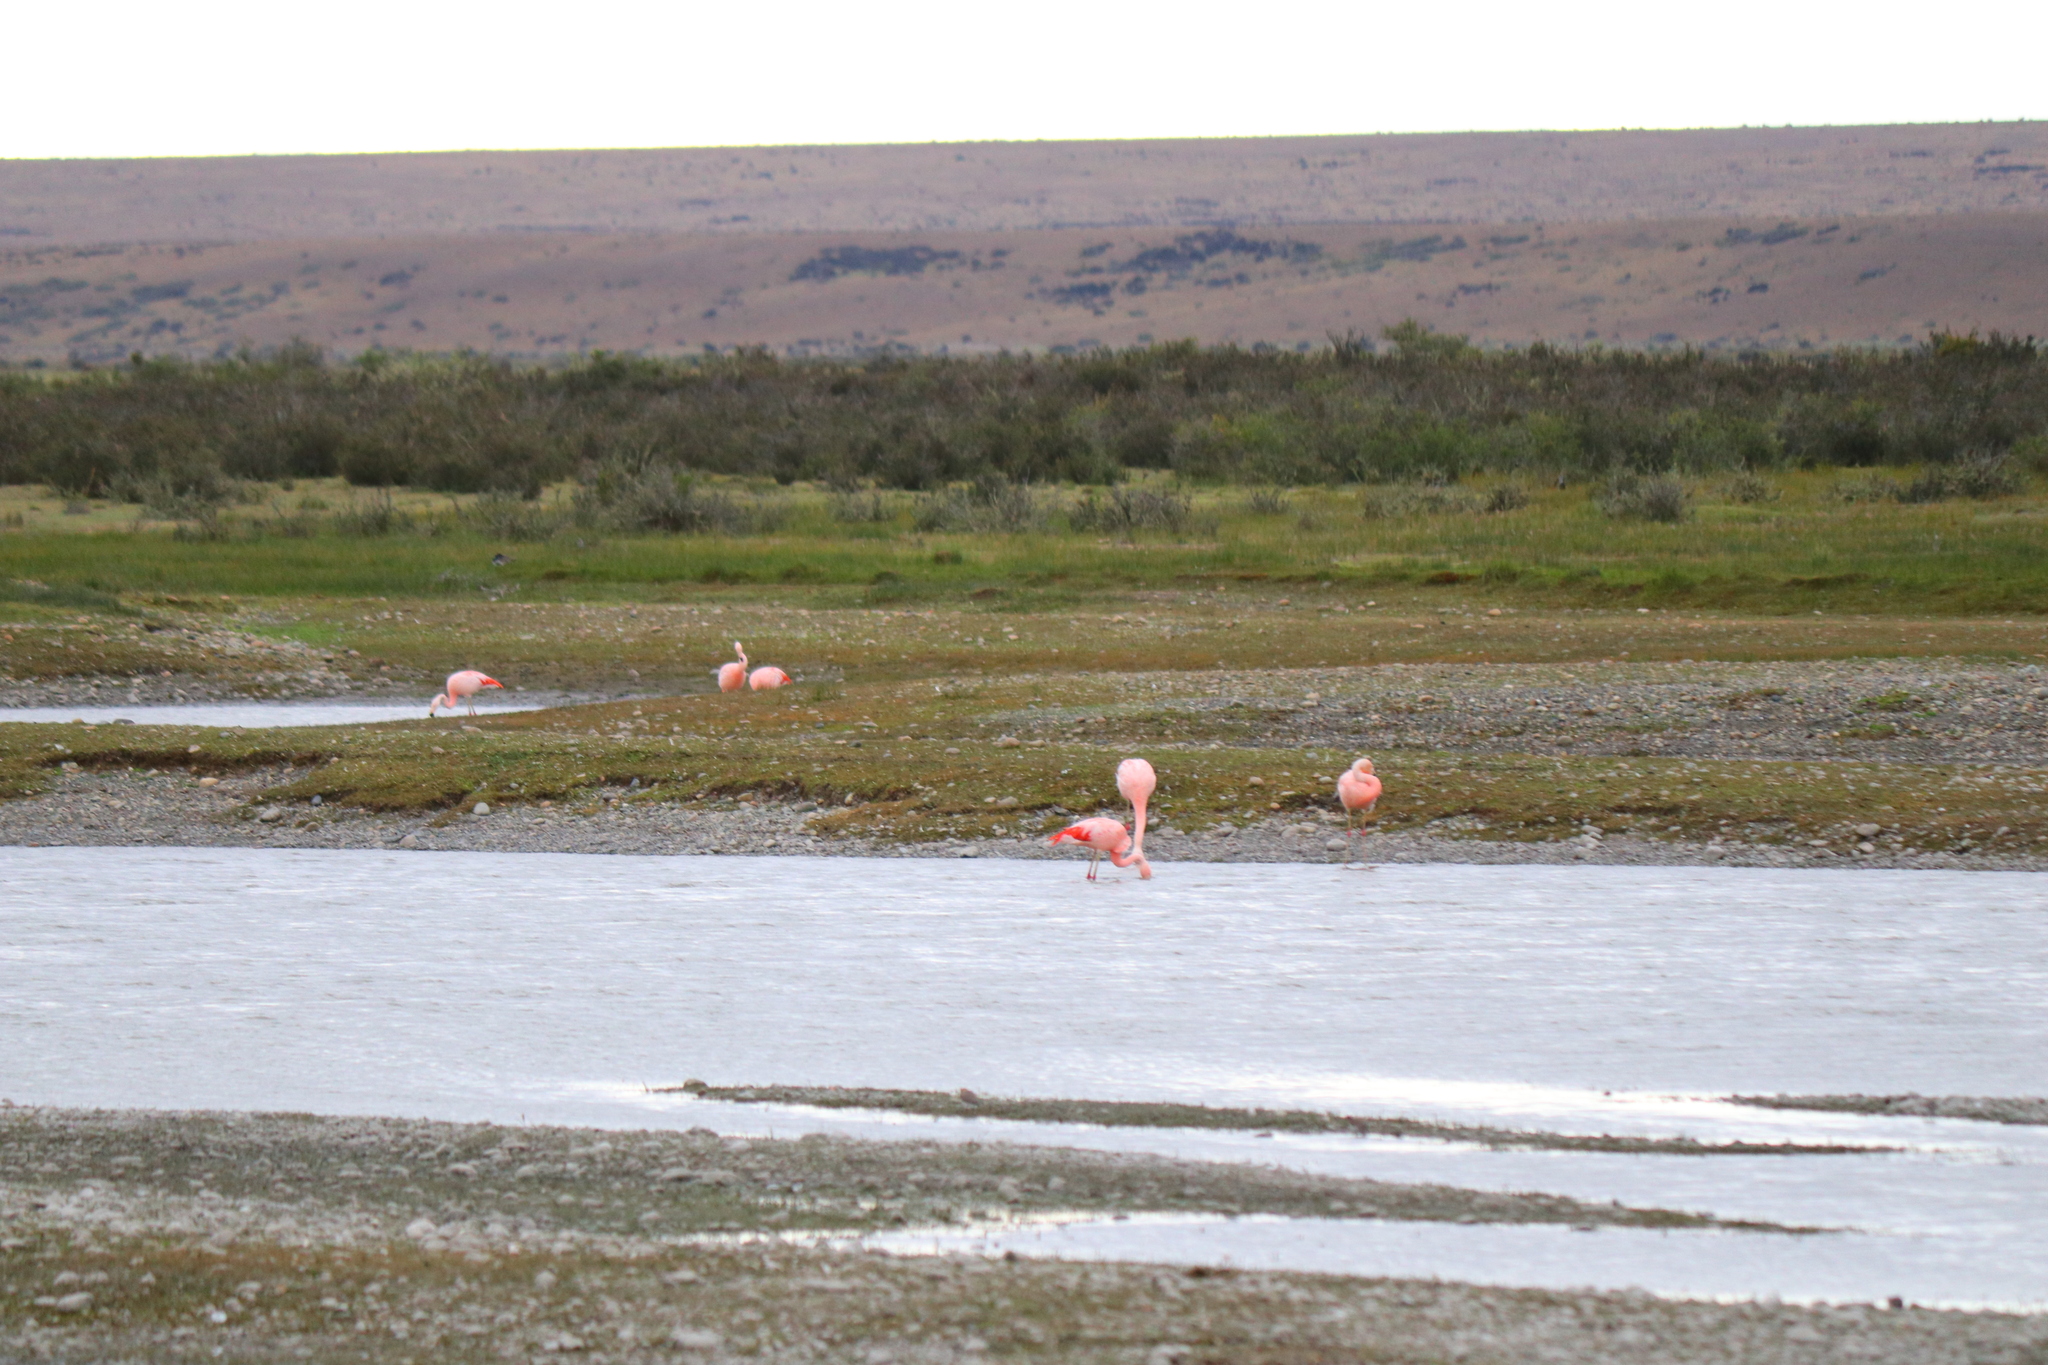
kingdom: Animalia
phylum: Chordata
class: Aves
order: Phoenicopteriformes
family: Phoenicopteridae
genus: Phoenicopterus
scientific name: Phoenicopterus chilensis
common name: Chilean flamingo
